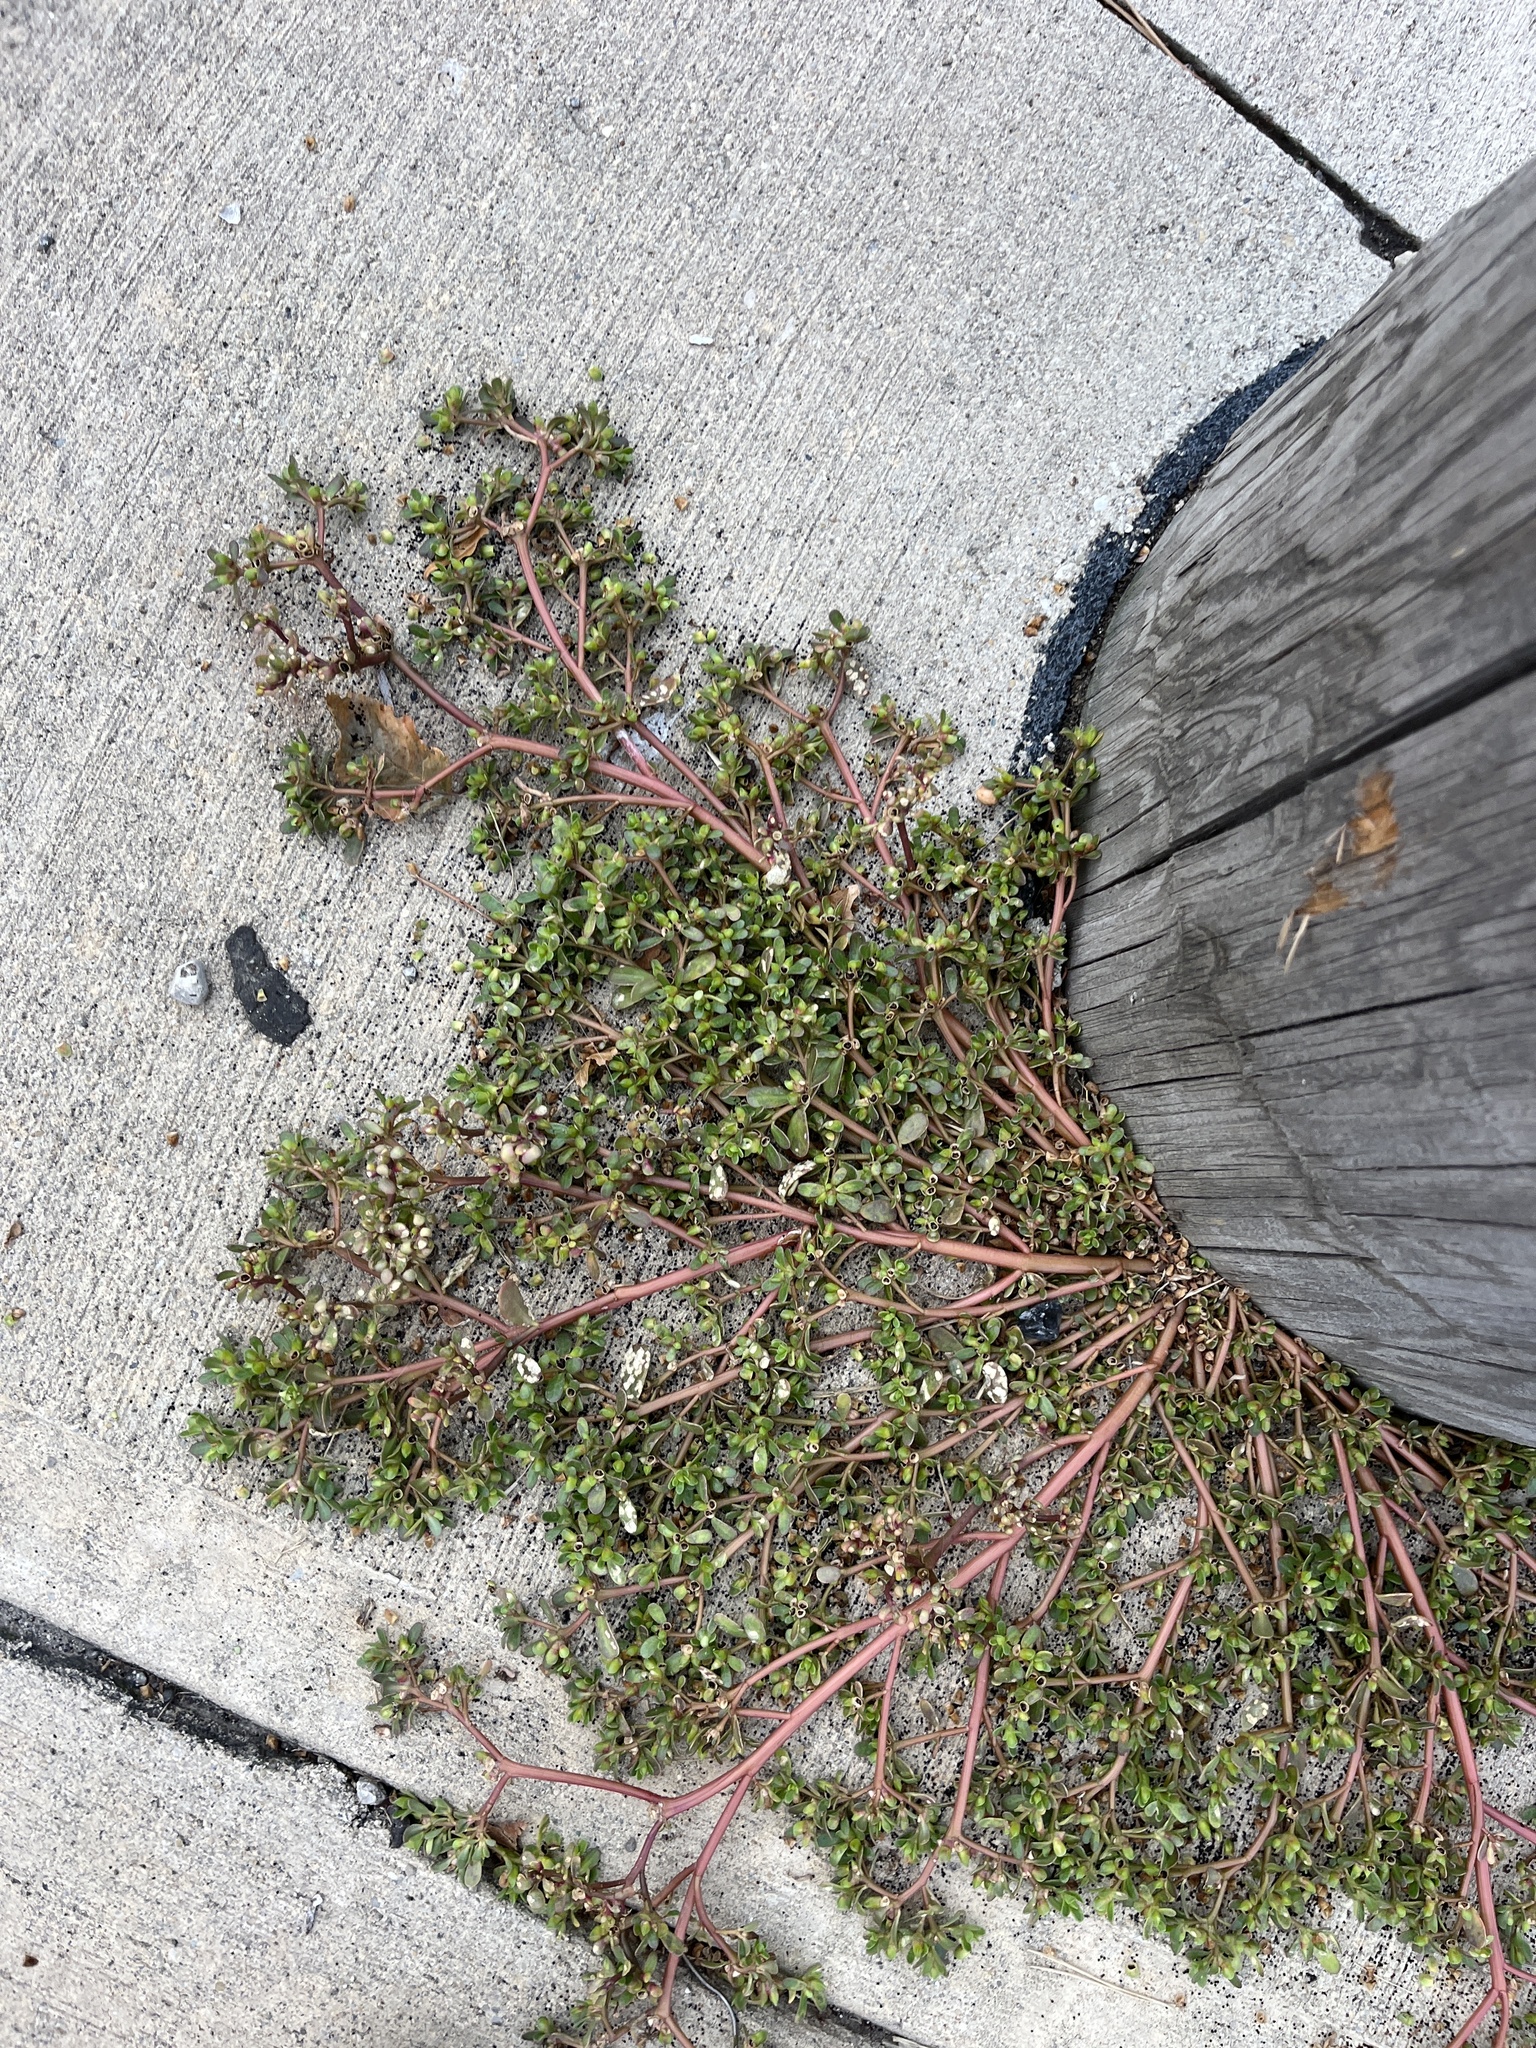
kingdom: Plantae
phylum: Tracheophyta
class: Magnoliopsida
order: Caryophyllales
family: Portulacaceae
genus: Portulaca
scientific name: Portulaca oleracea
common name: Common purslane
